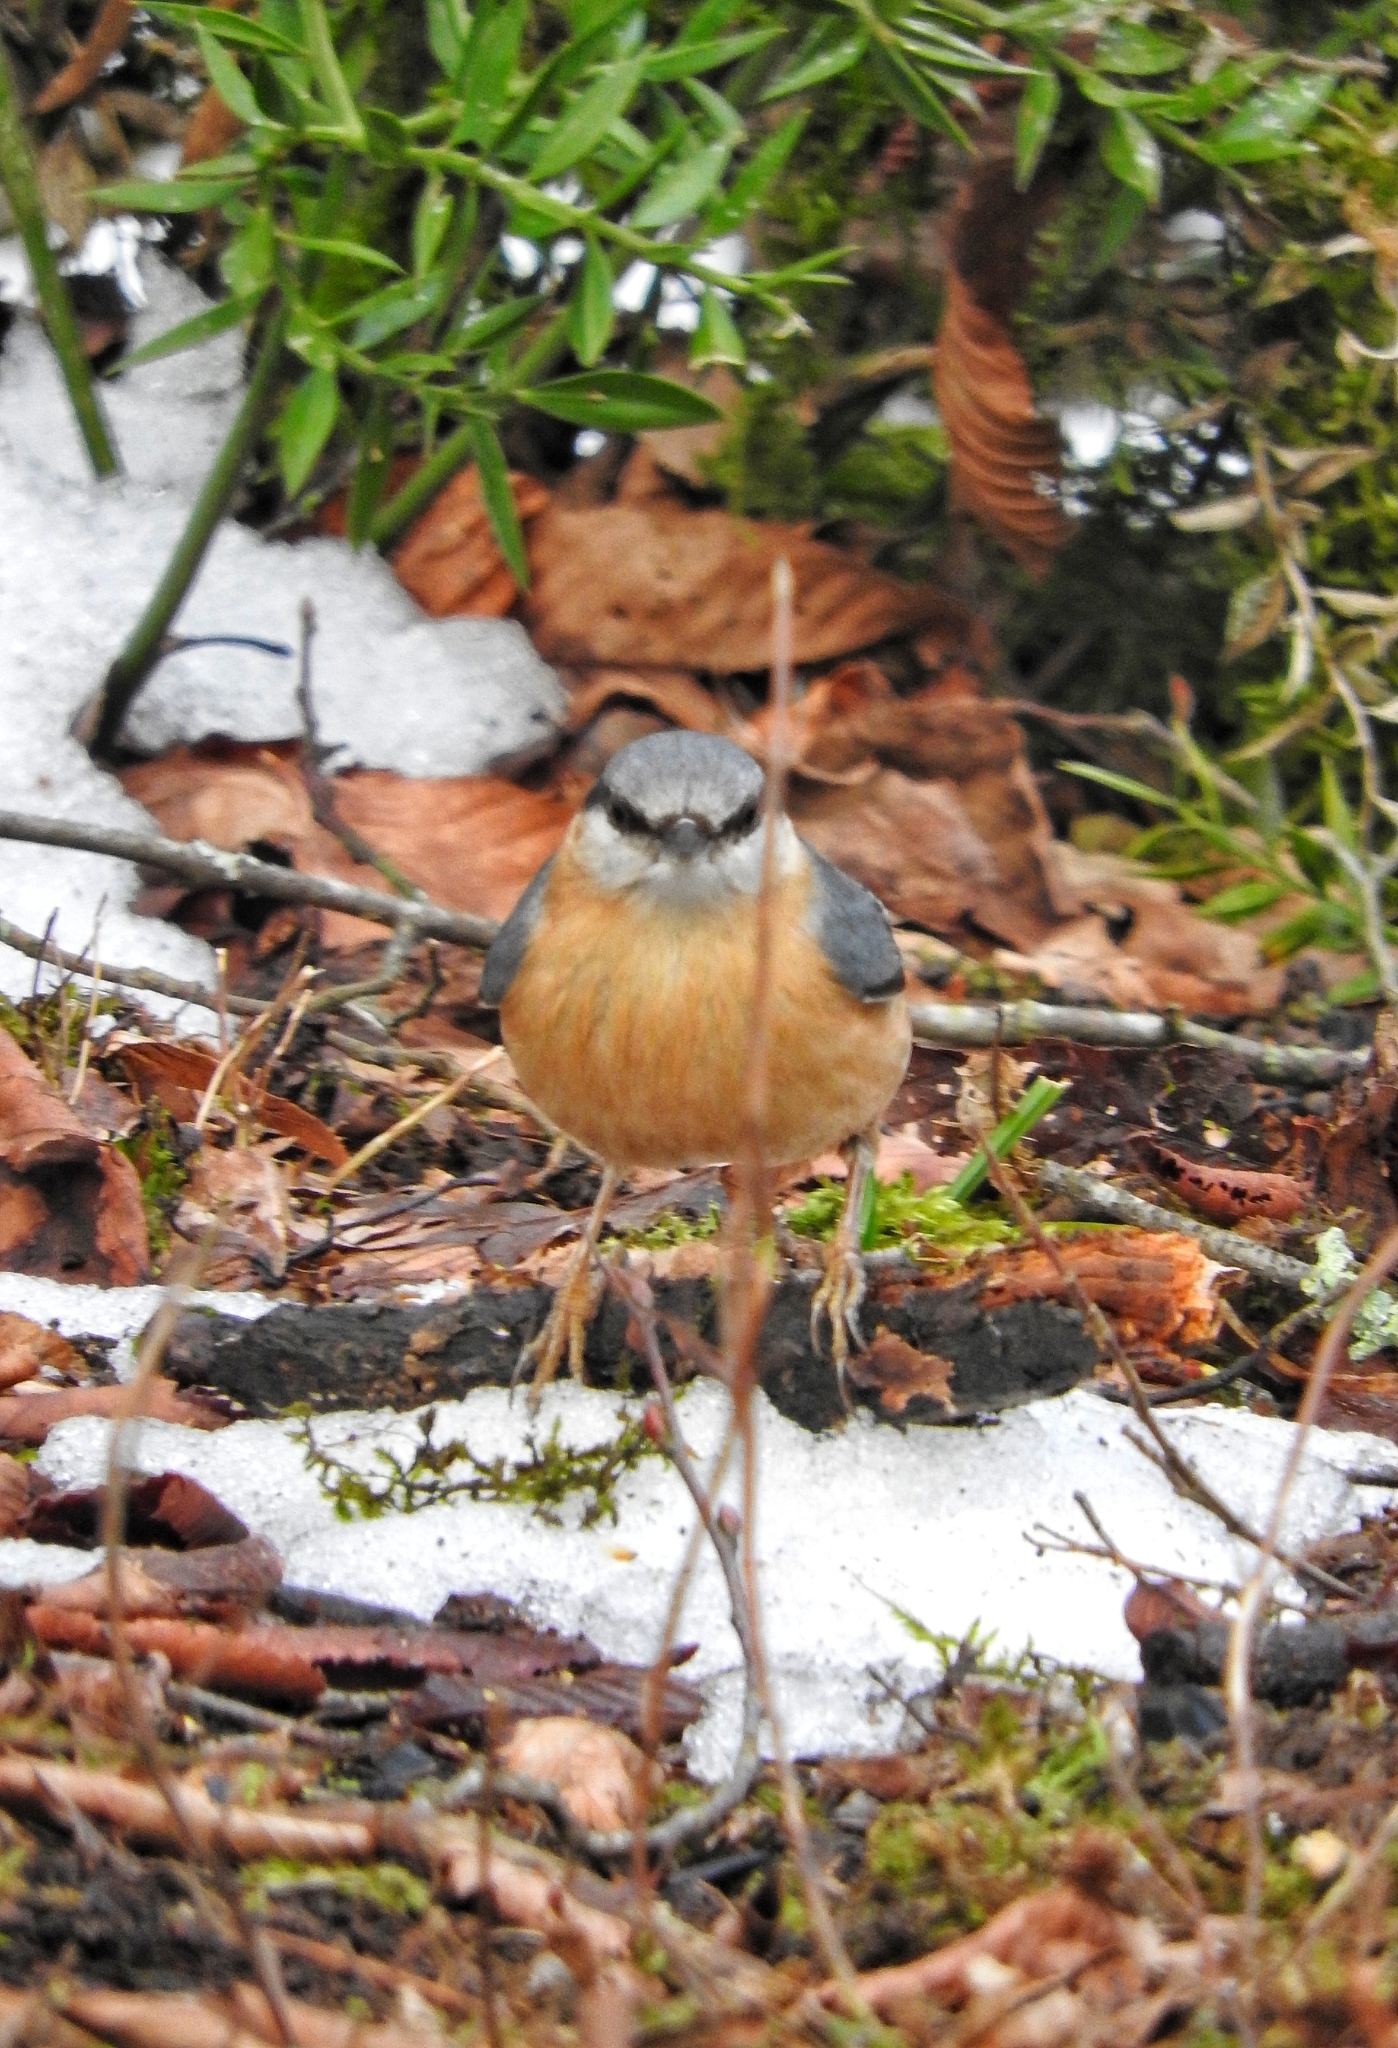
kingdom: Animalia
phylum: Chordata
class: Aves
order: Passeriformes
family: Sittidae
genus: Sitta
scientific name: Sitta europaea
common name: Eurasian nuthatch
